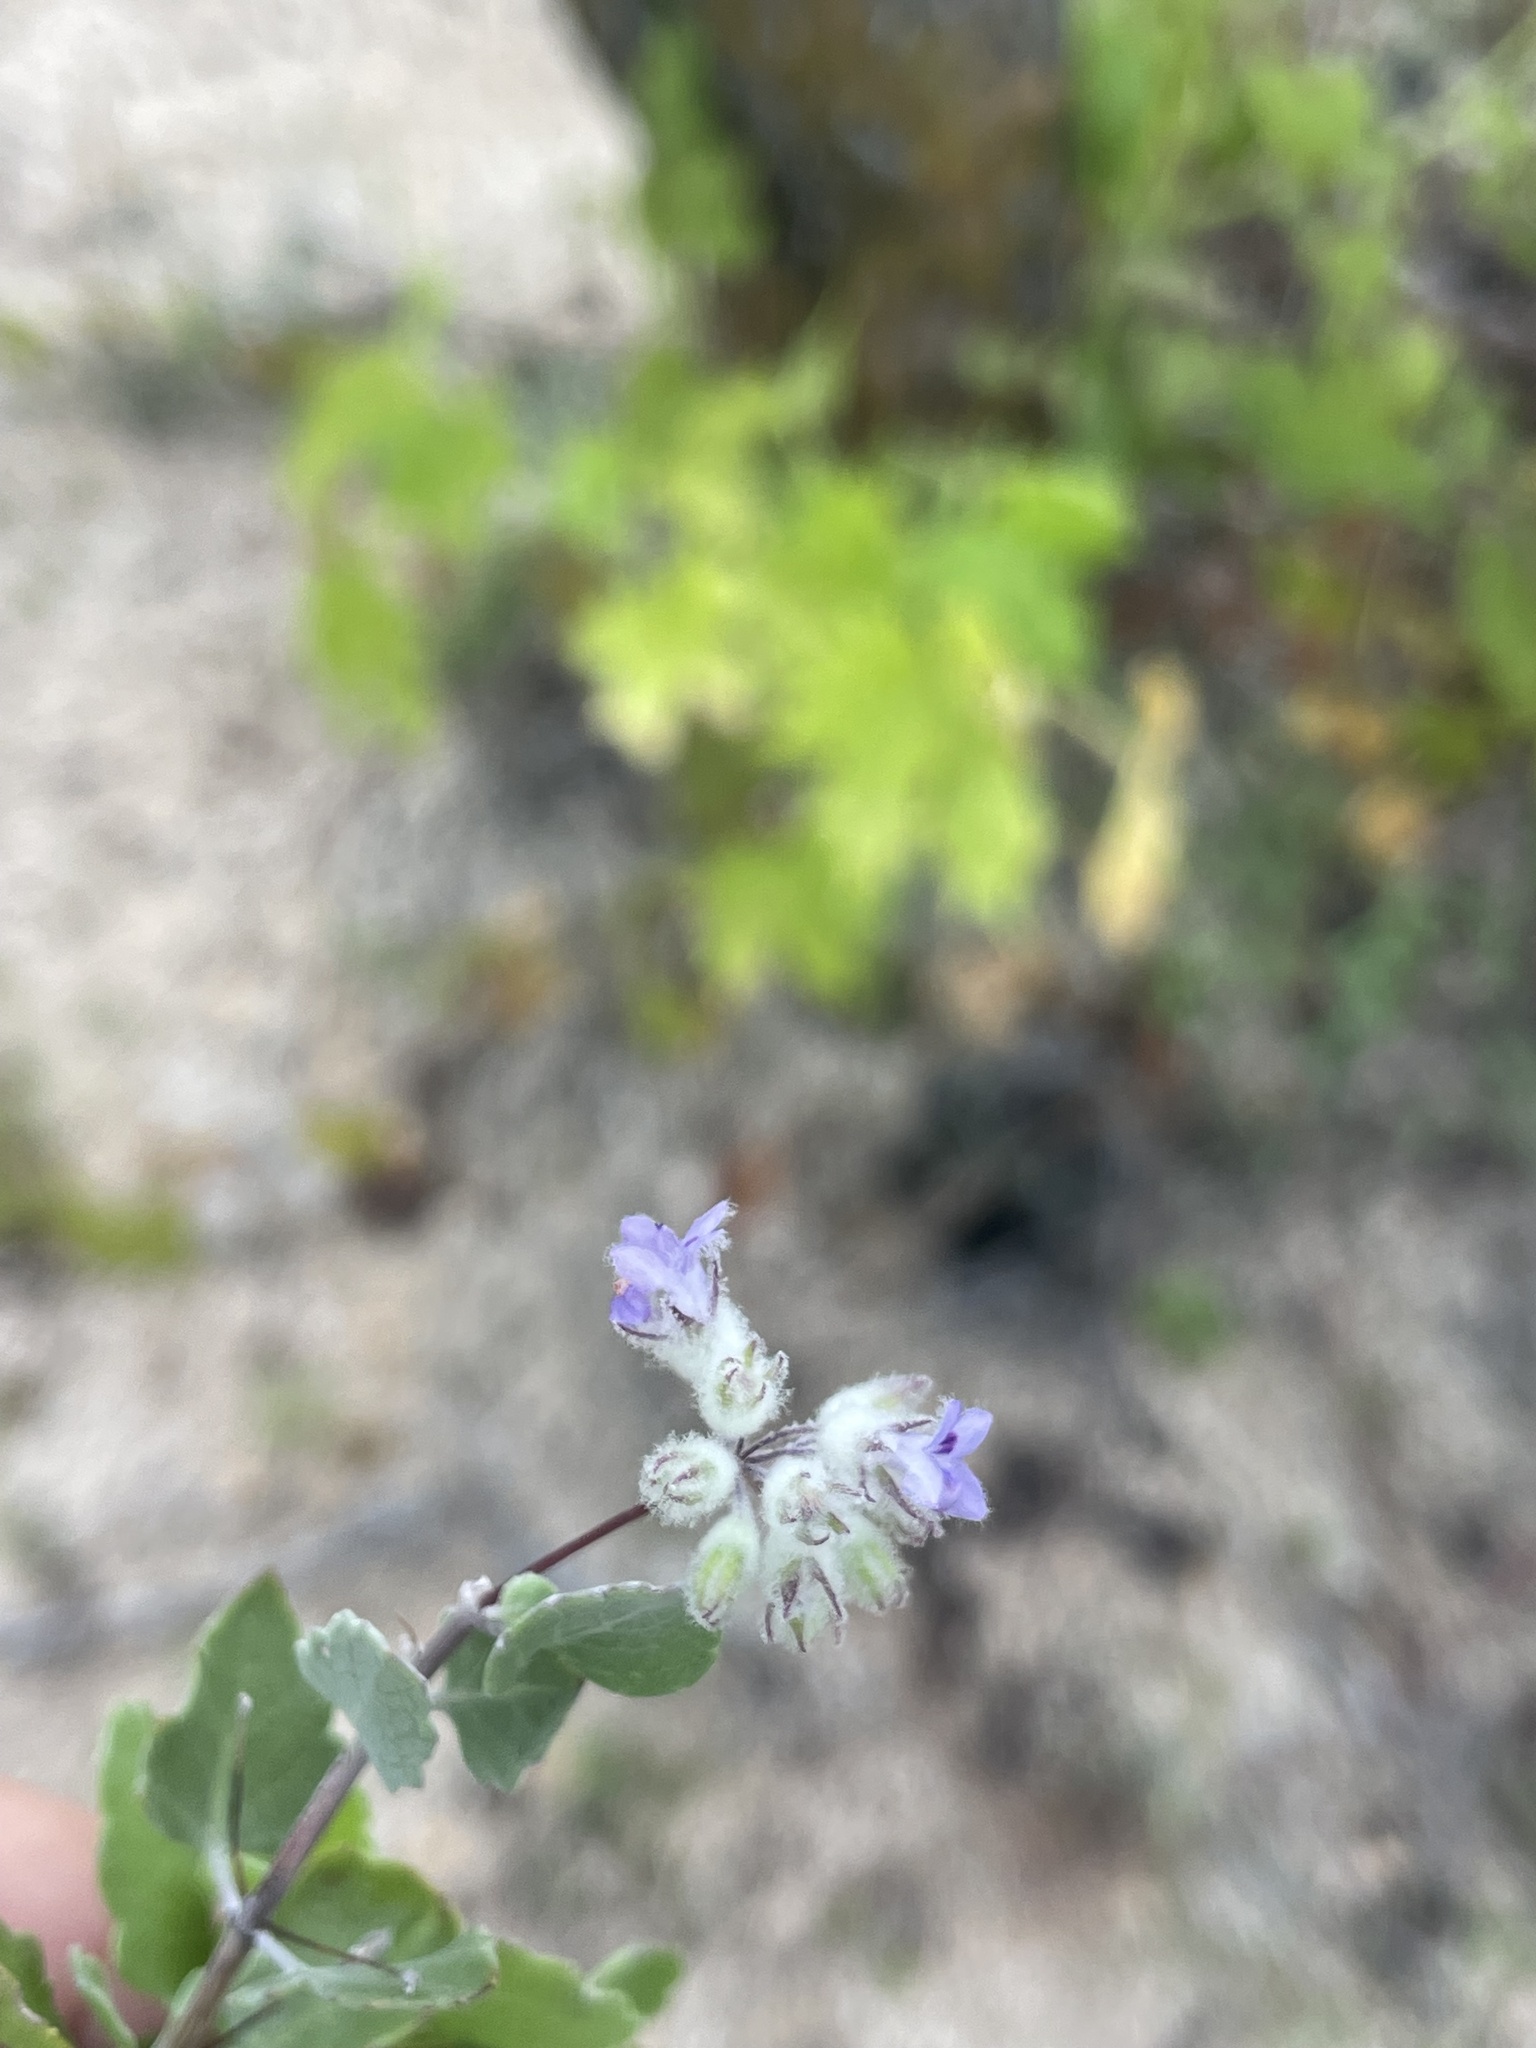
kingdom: Plantae
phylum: Tracheophyta
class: Magnoliopsida
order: Lamiales
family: Lamiaceae
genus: Condea
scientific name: Condea laniflora
